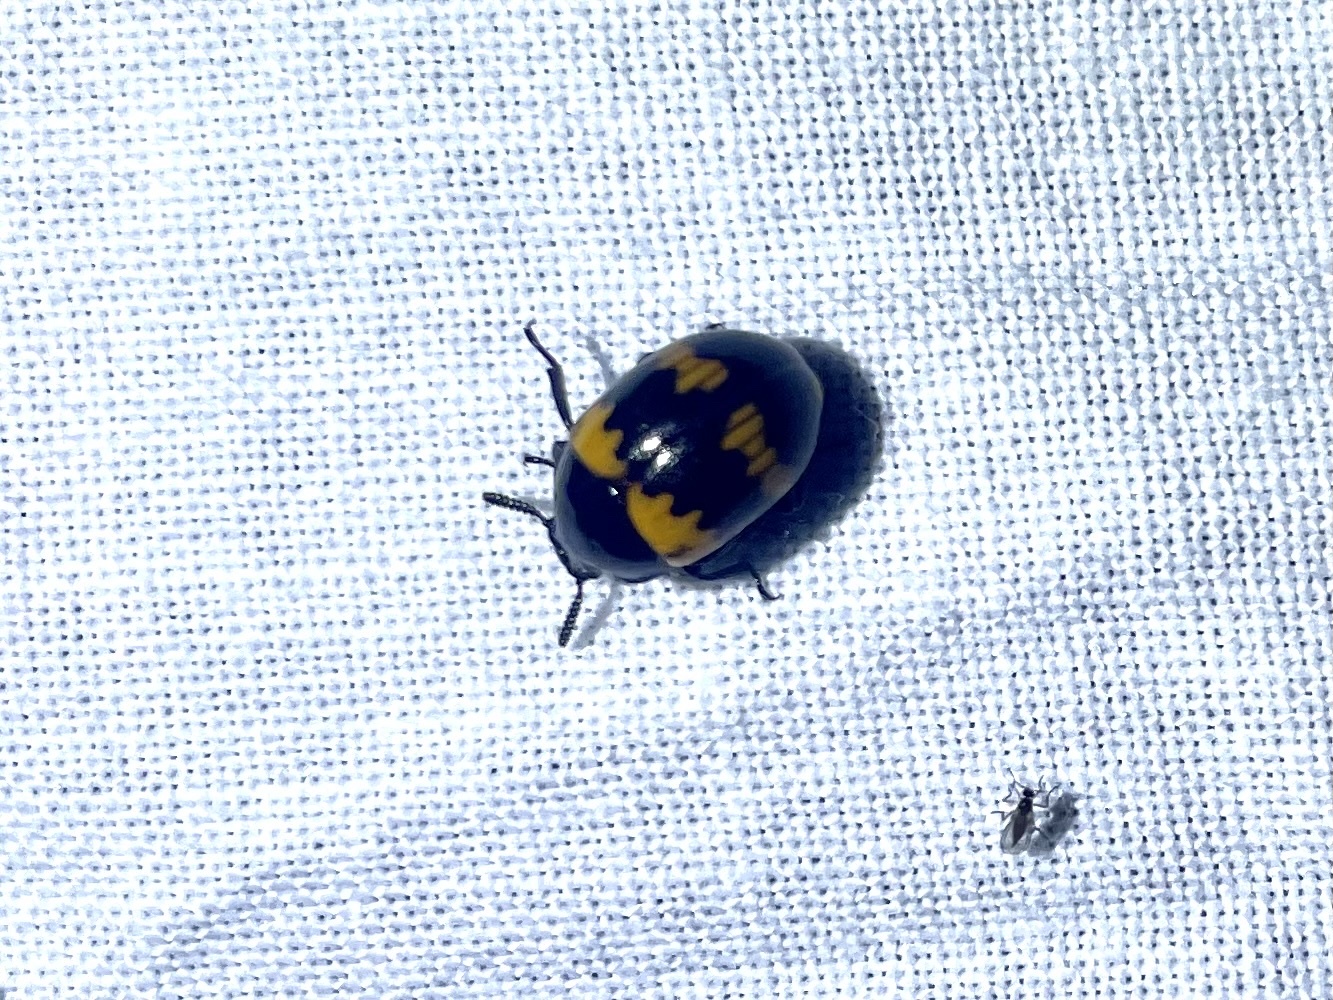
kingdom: Animalia
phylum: Arthropoda
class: Insecta
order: Coleoptera
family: Tenebrionidae
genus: Diaperis
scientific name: Diaperis boleti
